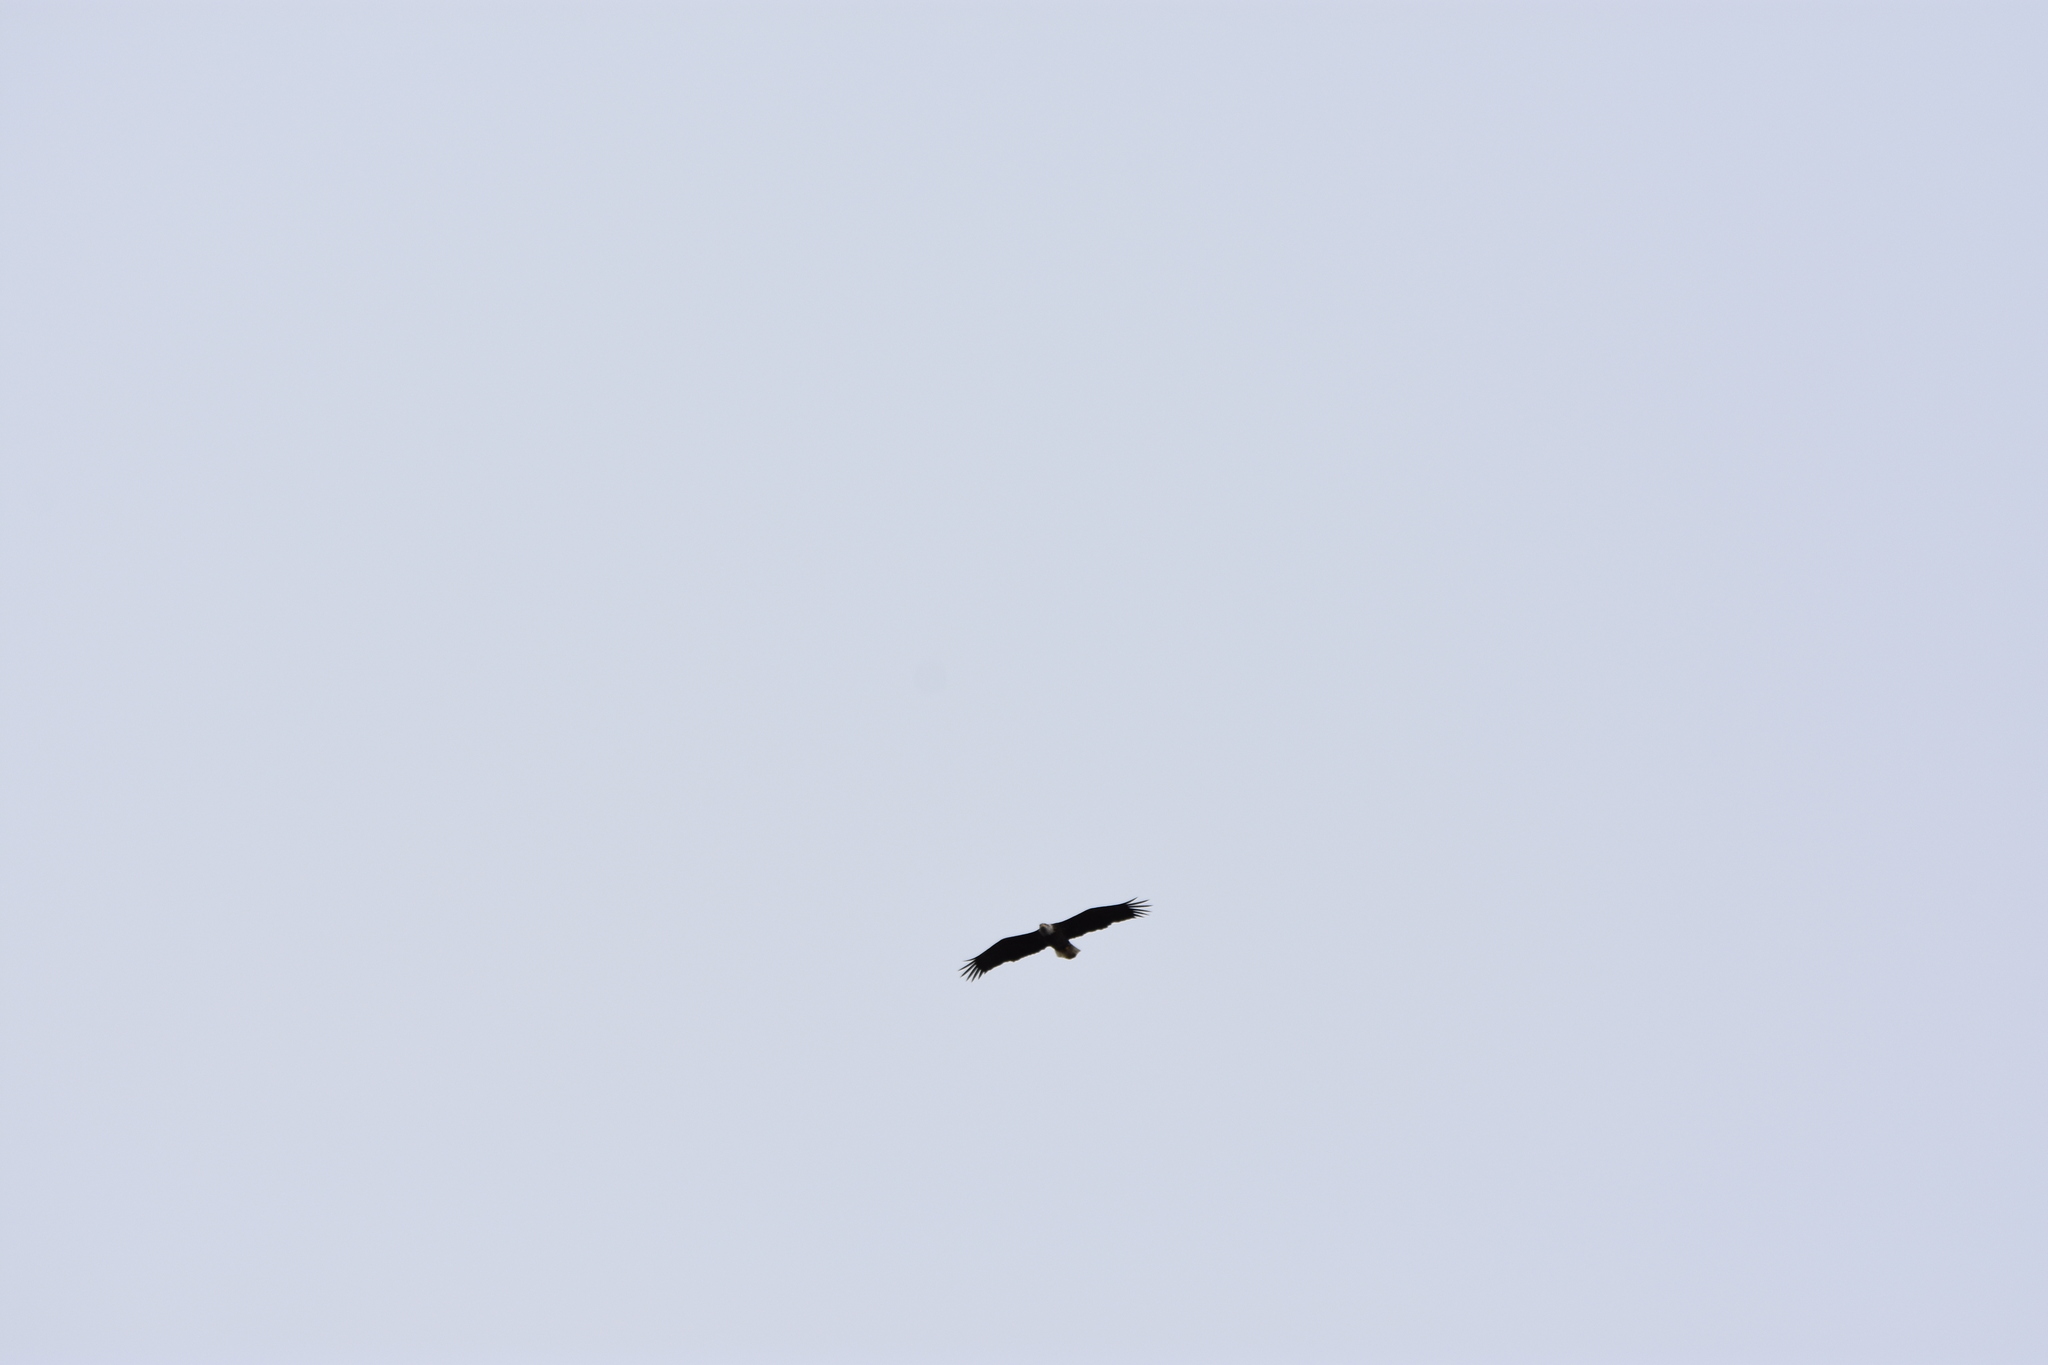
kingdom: Animalia
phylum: Chordata
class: Aves
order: Accipitriformes
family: Accipitridae
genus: Haliaeetus
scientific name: Haliaeetus leucocephalus
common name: Bald eagle
